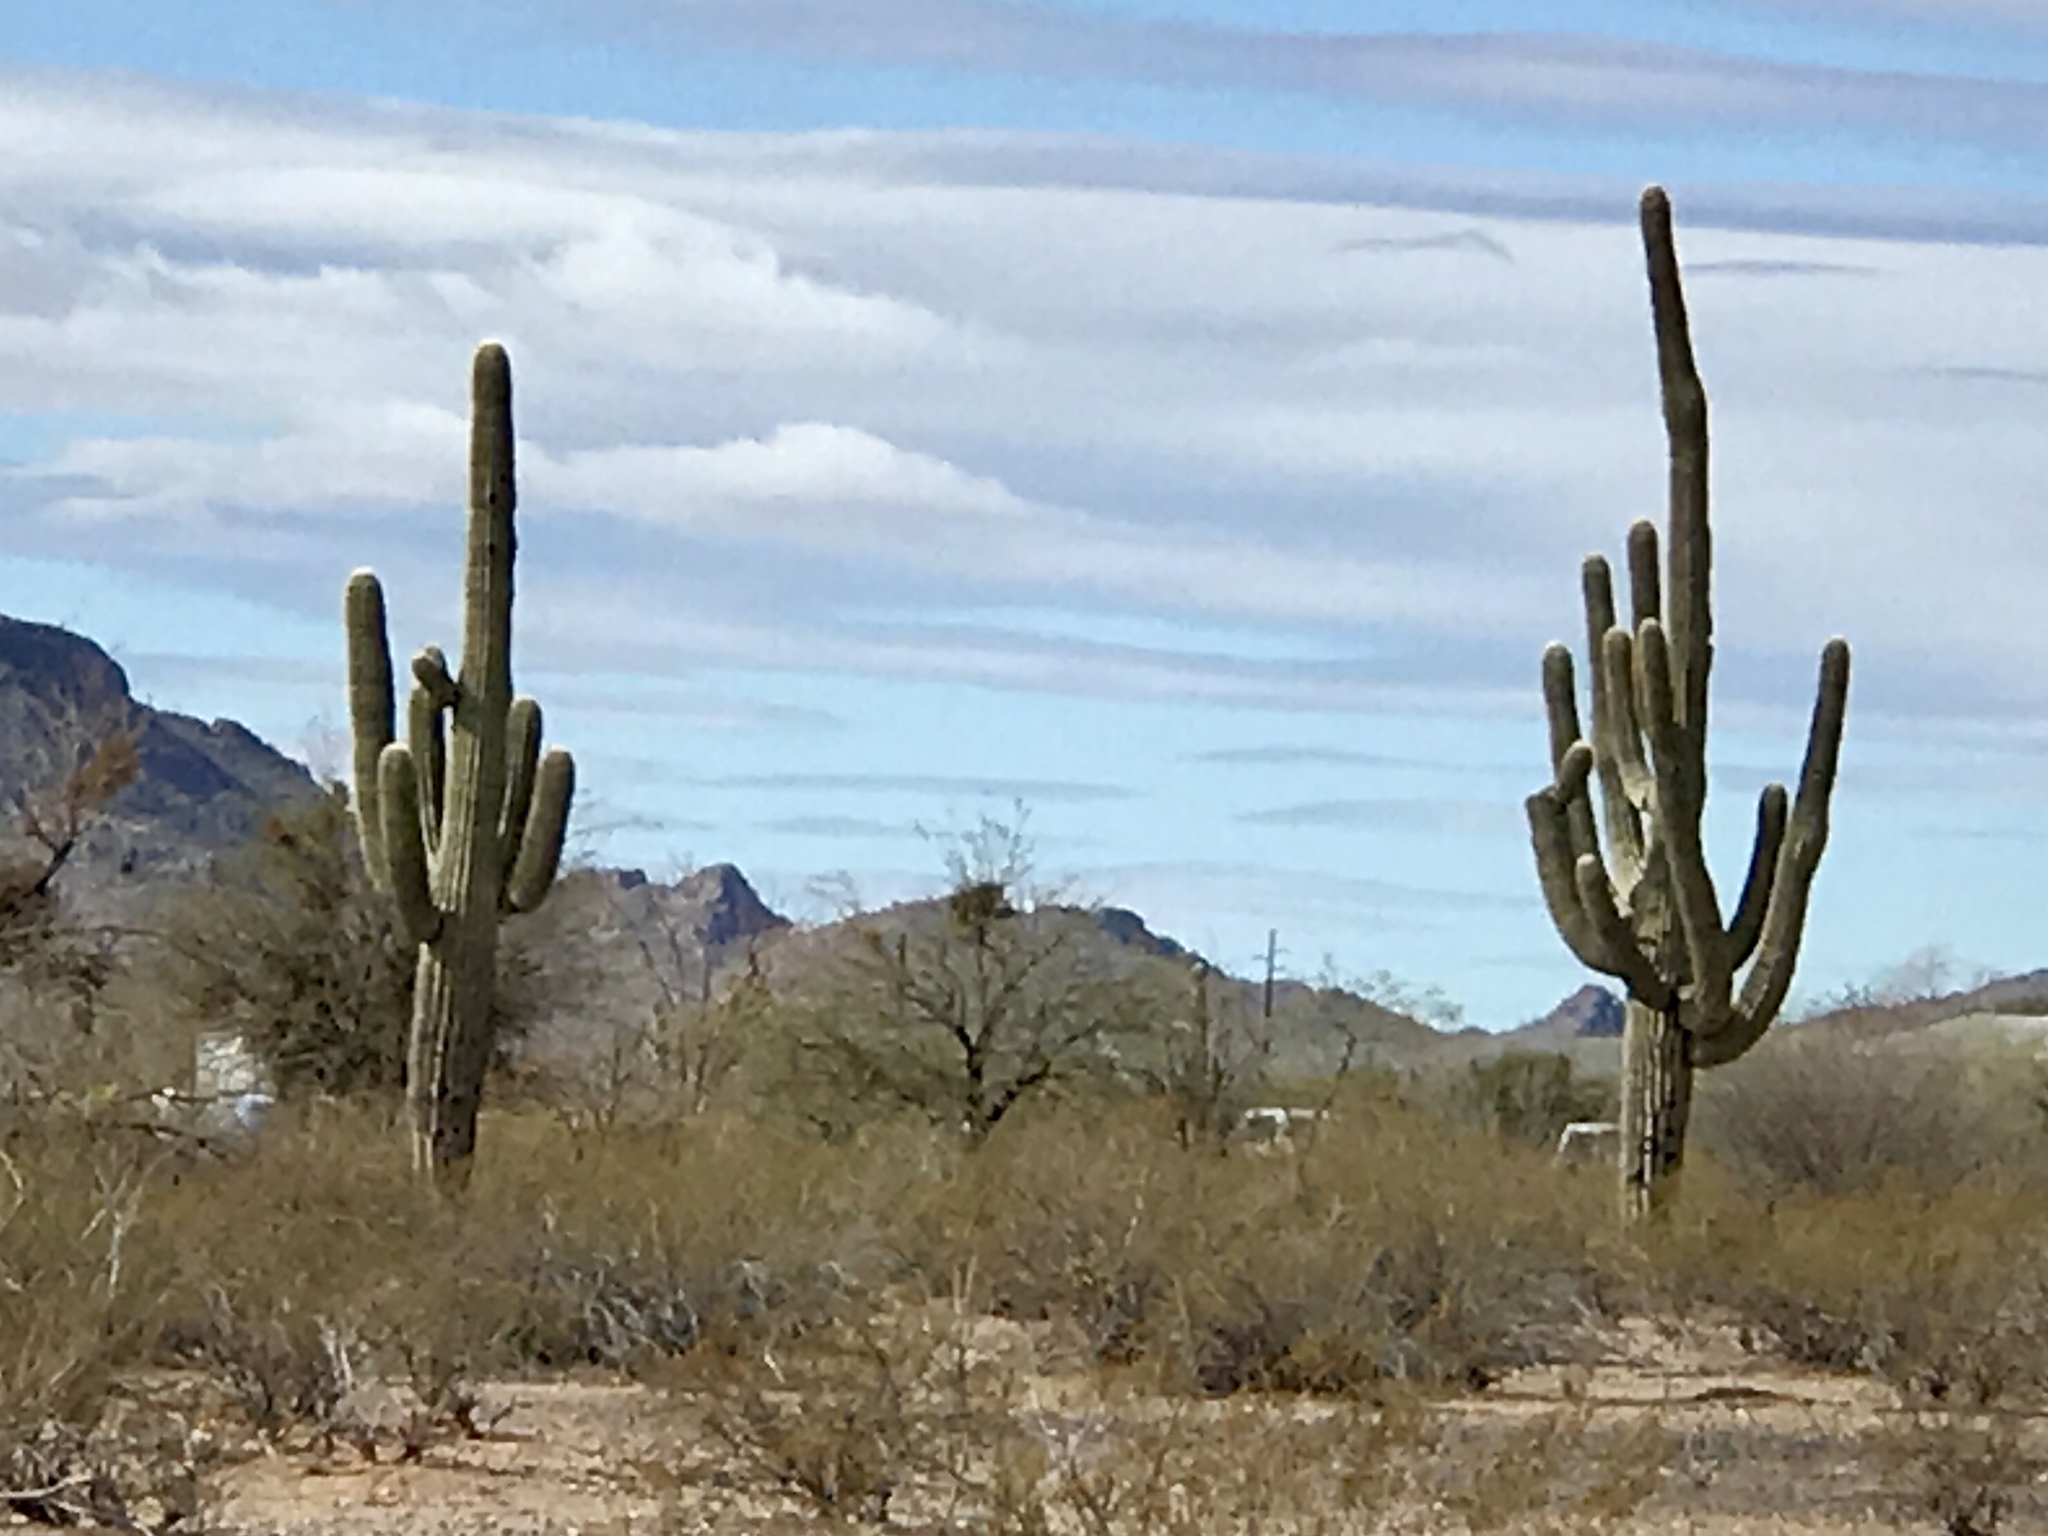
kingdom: Plantae
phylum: Tracheophyta
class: Magnoliopsida
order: Caryophyllales
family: Cactaceae
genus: Carnegiea
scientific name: Carnegiea gigantea
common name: Saguaro
